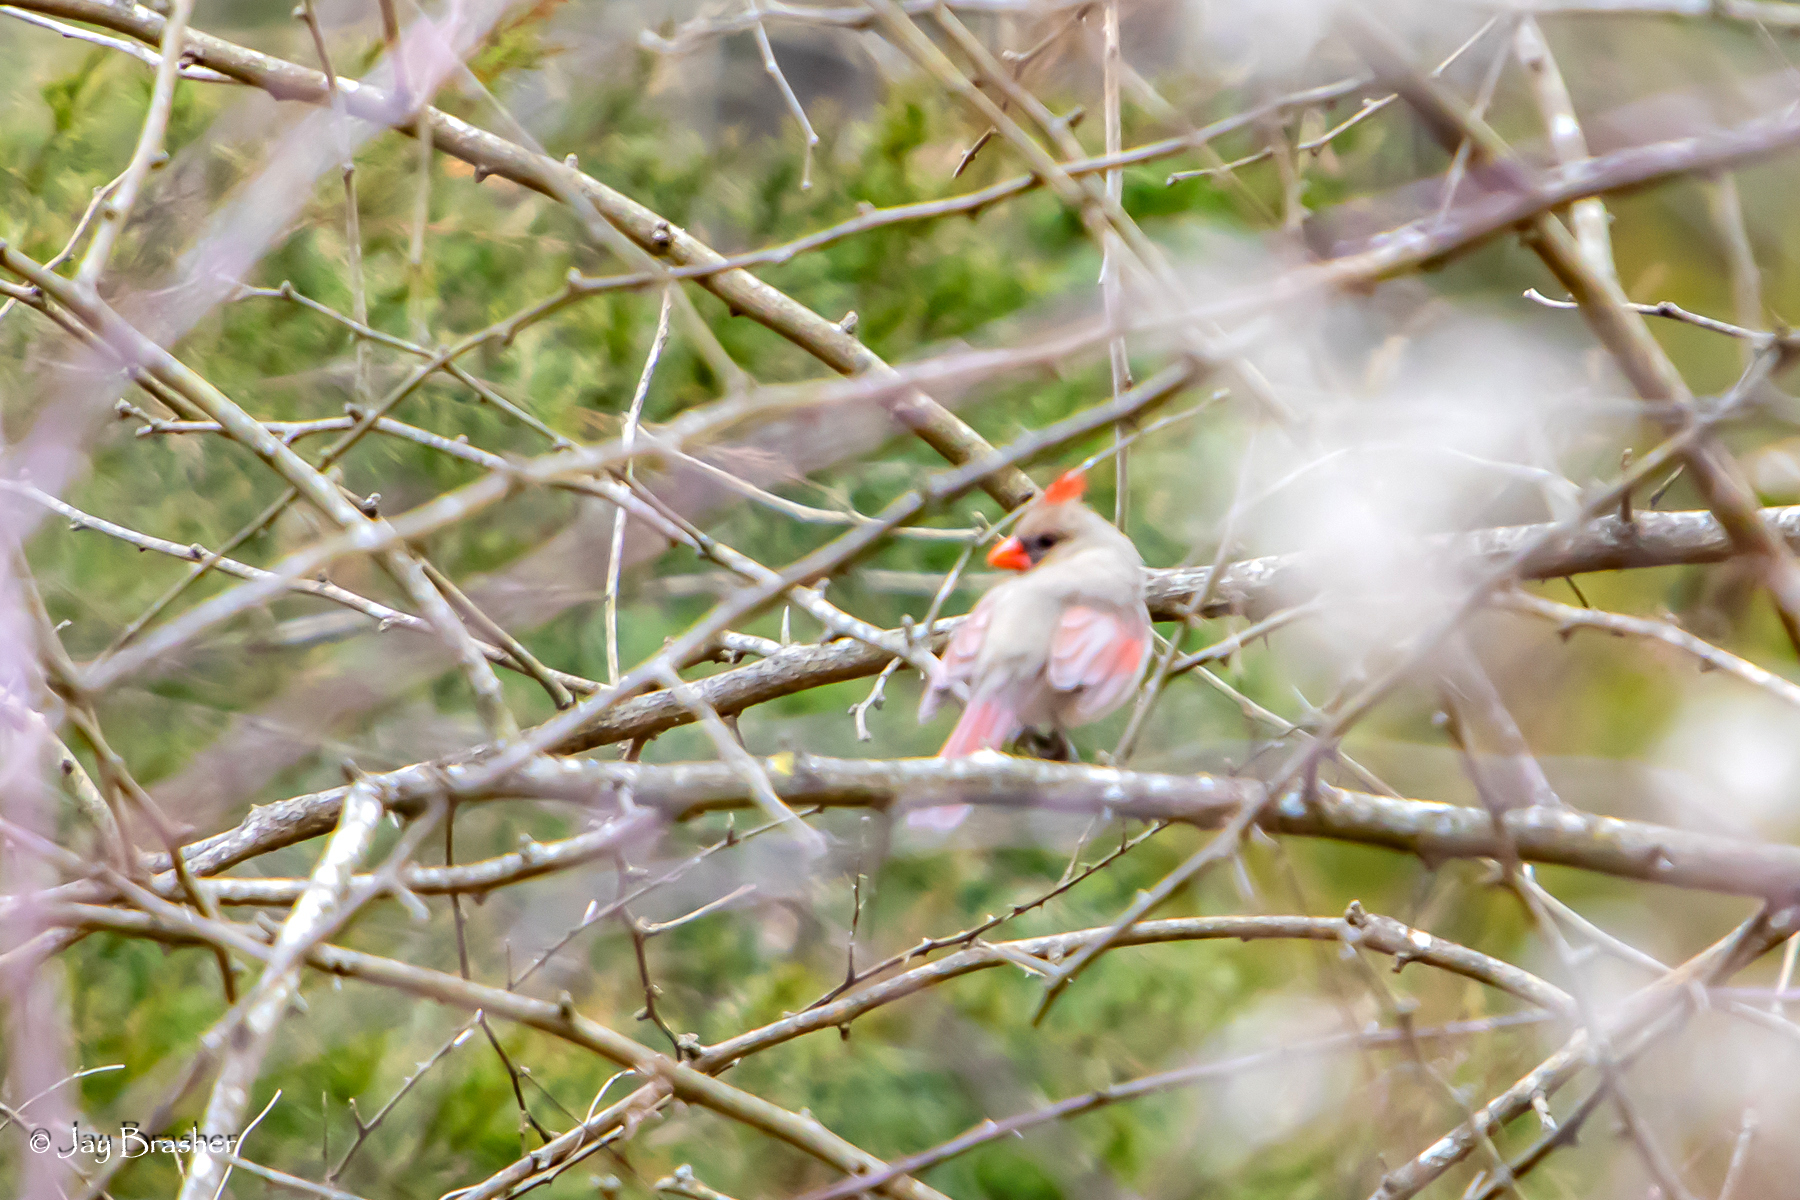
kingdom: Animalia
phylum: Chordata
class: Aves
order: Passeriformes
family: Cardinalidae
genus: Cardinalis
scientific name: Cardinalis cardinalis
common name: Northern cardinal
